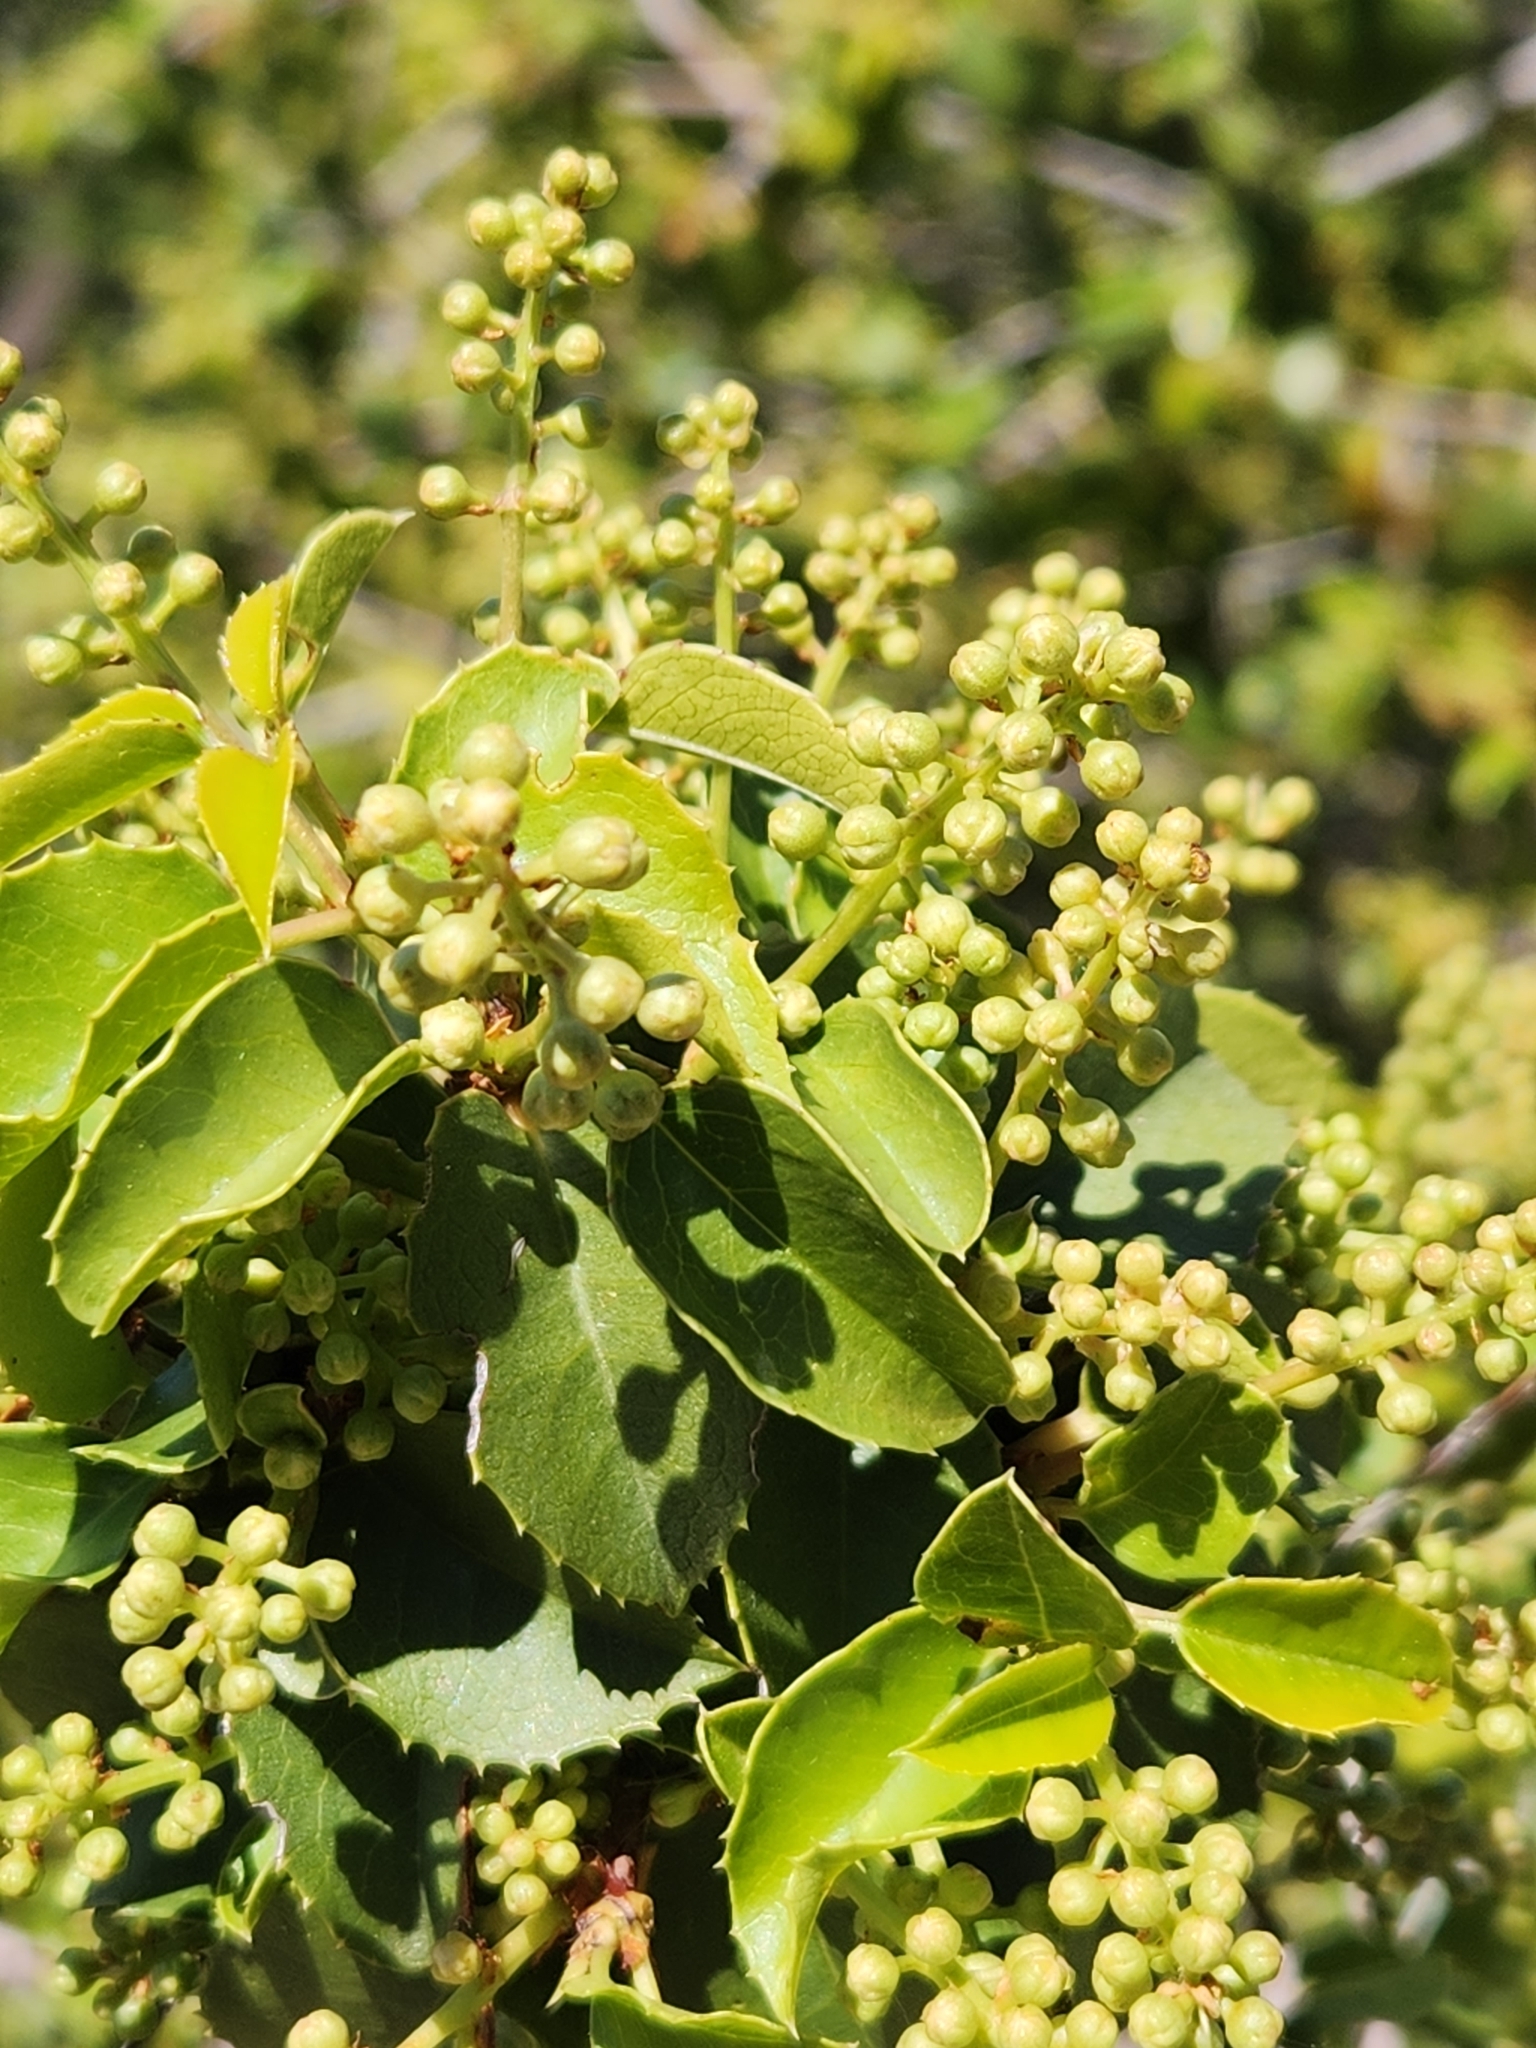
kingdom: Plantae
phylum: Tracheophyta
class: Magnoliopsida
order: Rosales
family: Rosaceae
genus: Prunus
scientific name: Prunus ilicifolia
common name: Hollyleaf cherry
